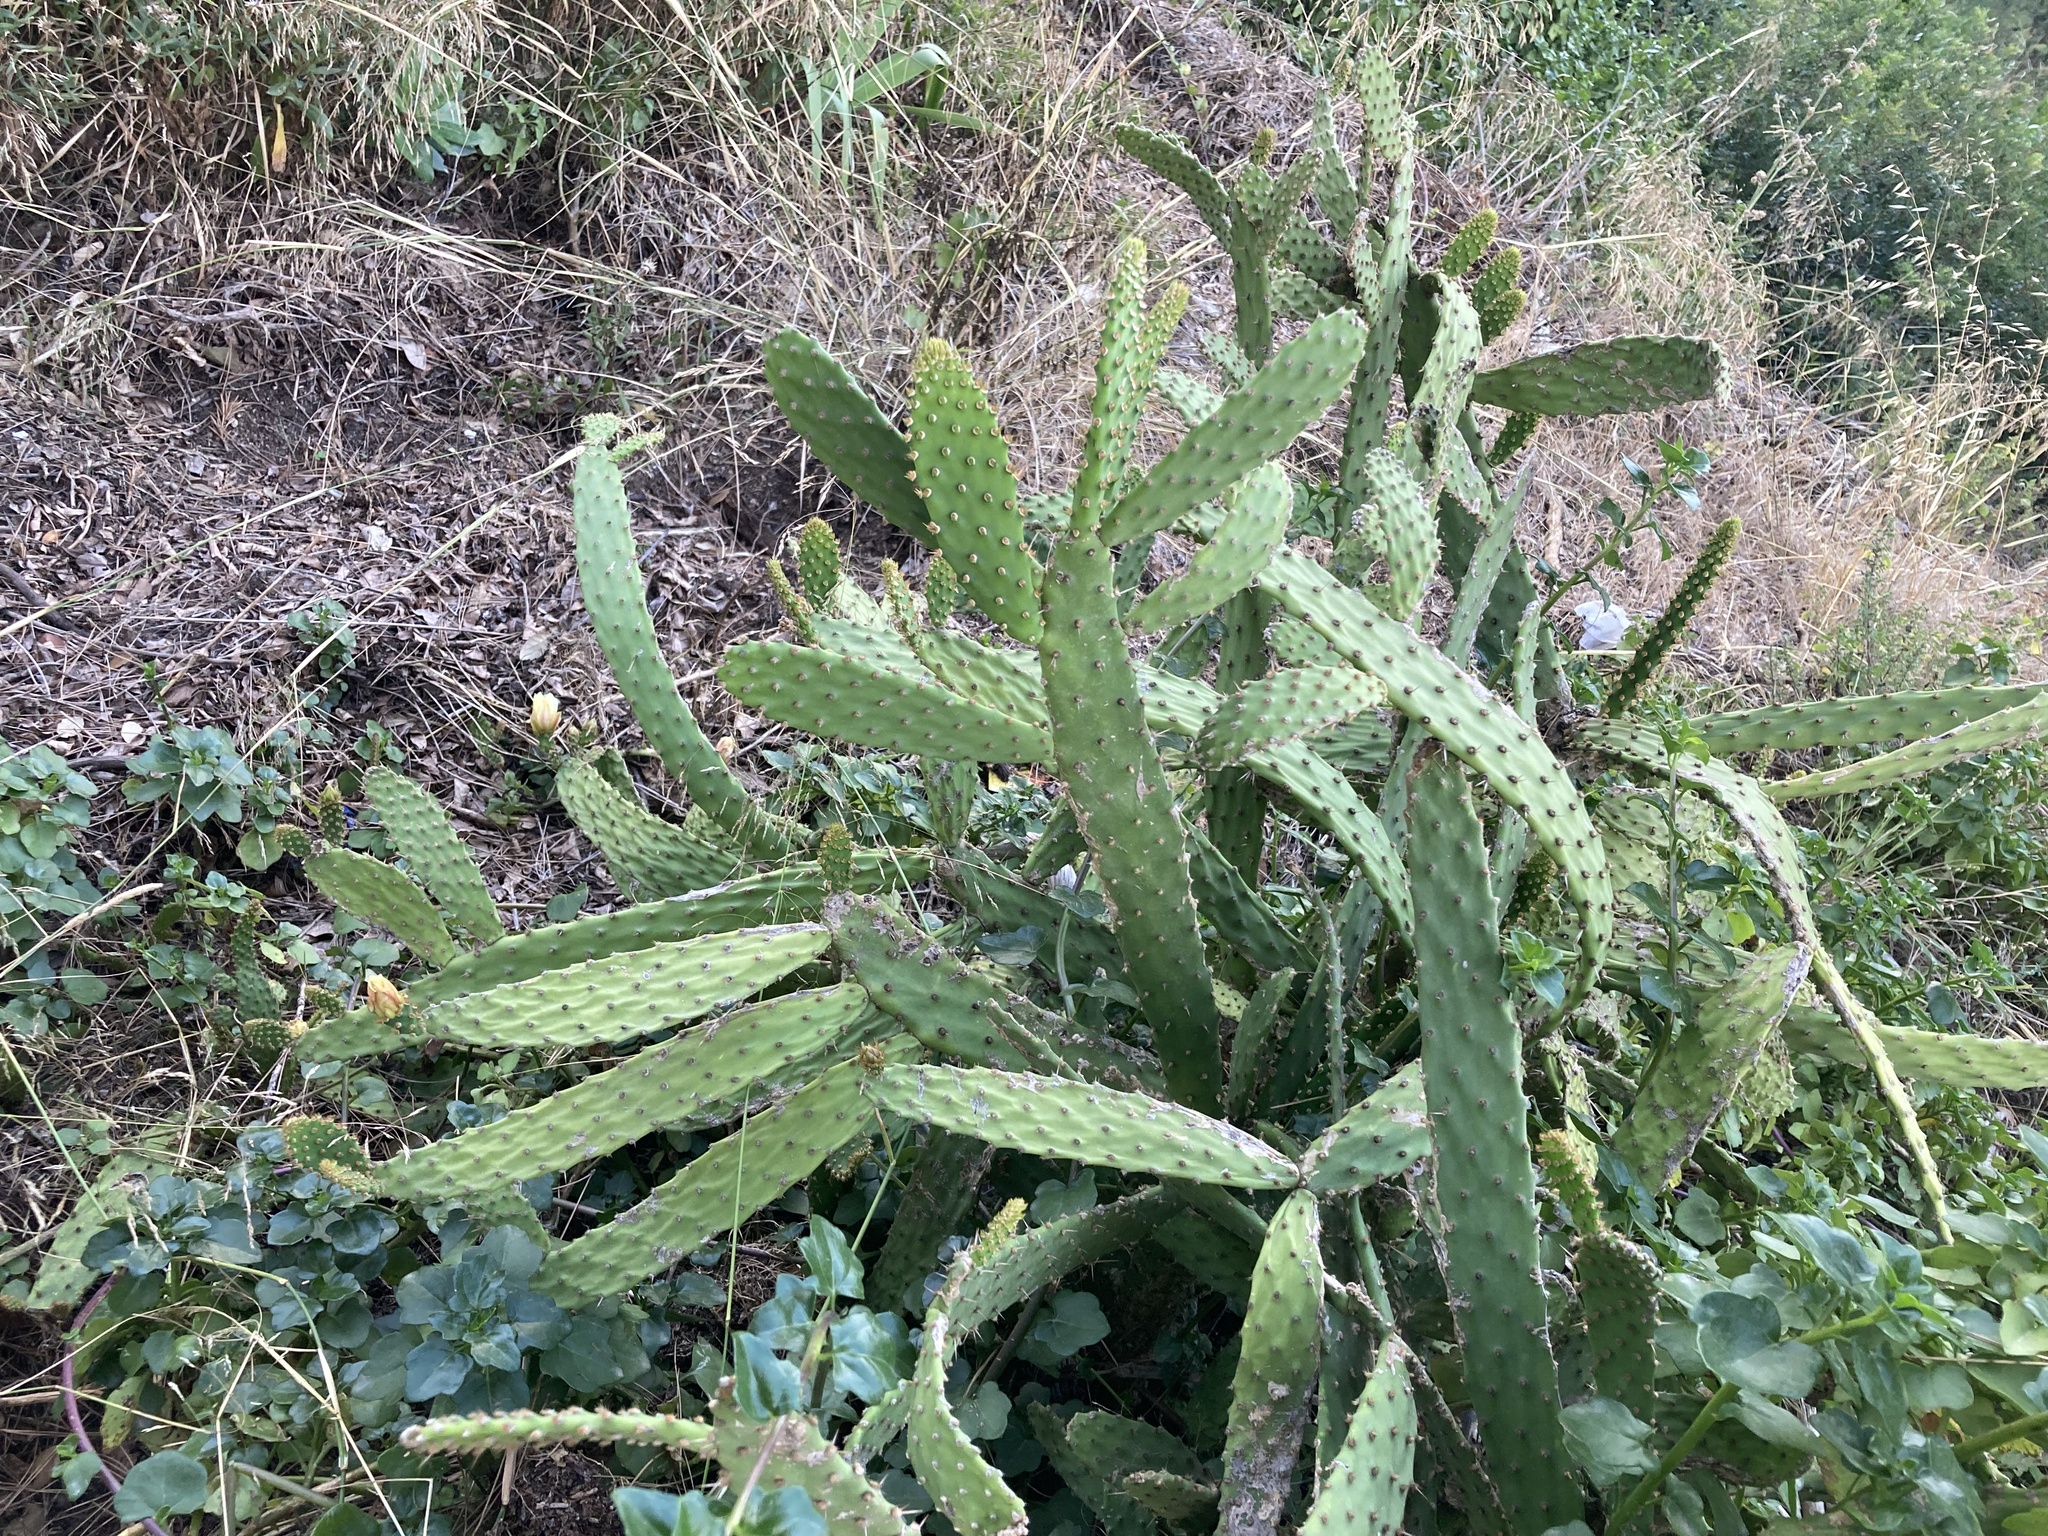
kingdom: Plantae
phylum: Tracheophyta
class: Magnoliopsida
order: Caryophyllales
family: Cactaceae
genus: Opuntia
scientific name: Opuntia leoglossa
